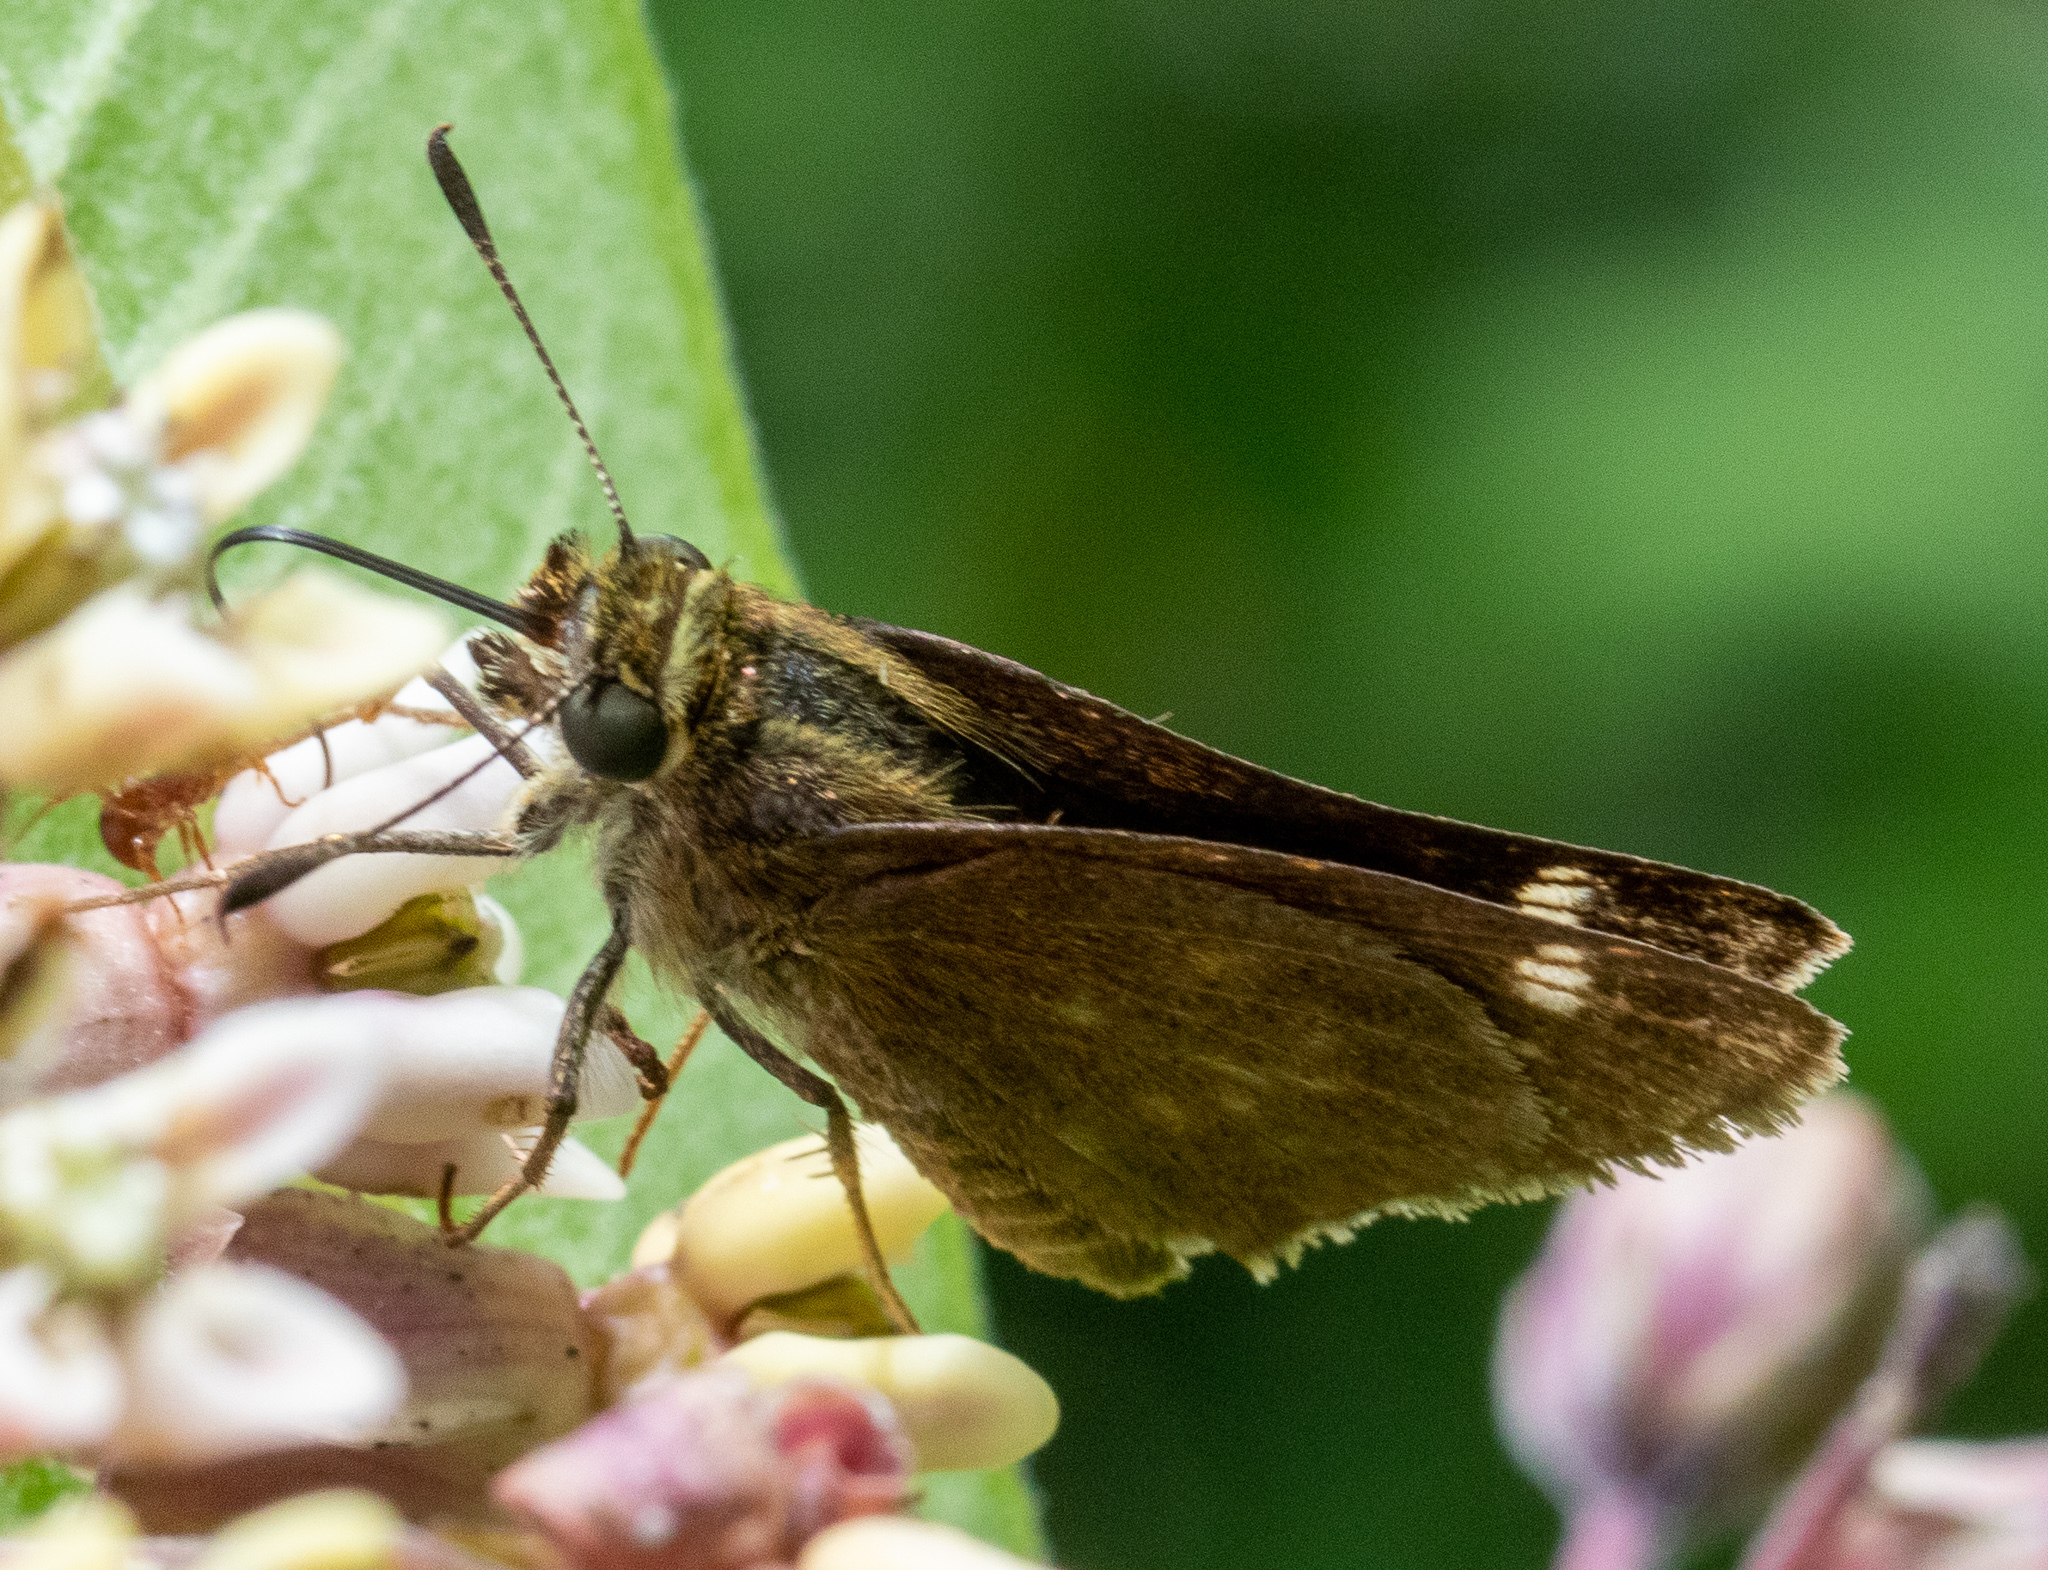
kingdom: Animalia
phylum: Arthropoda
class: Insecta
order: Lepidoptera
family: Hesperiidae
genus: Vernia
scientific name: Vernia verna
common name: Little glassywing
